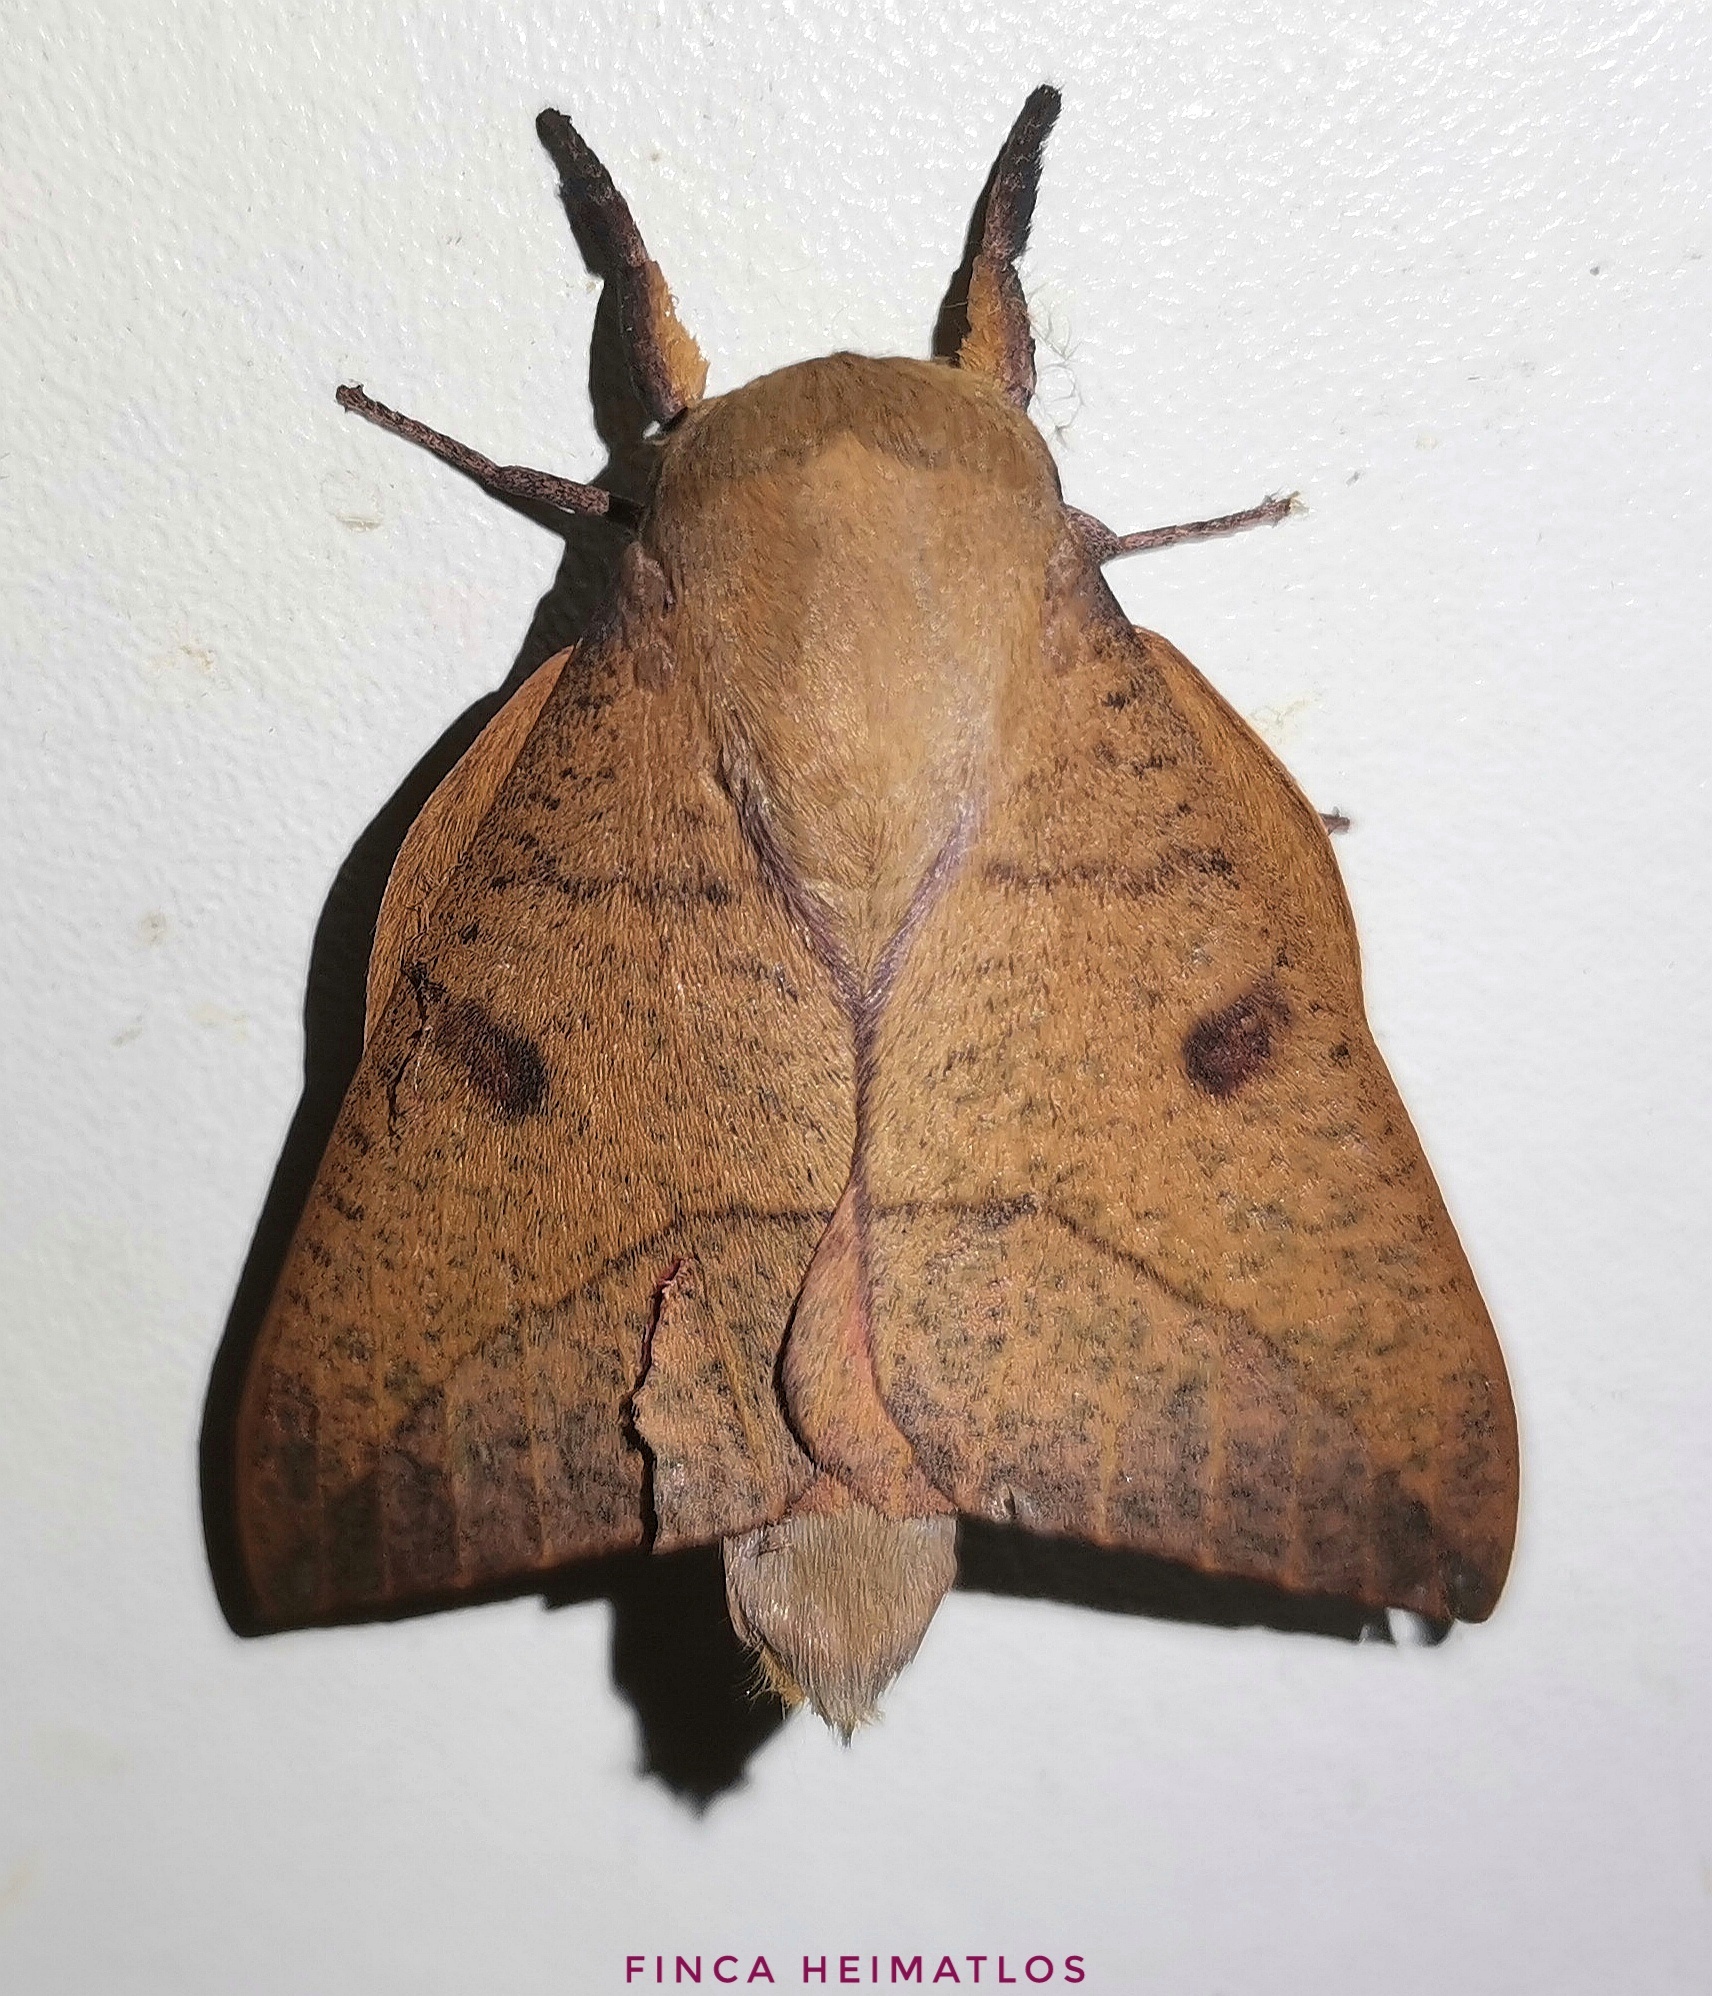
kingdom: Animalia
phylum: Arthropoda
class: Insecta
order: Lepidoptera
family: Saturniidae
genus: Adeloneivaia
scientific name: Adeloneivaia subangulata
